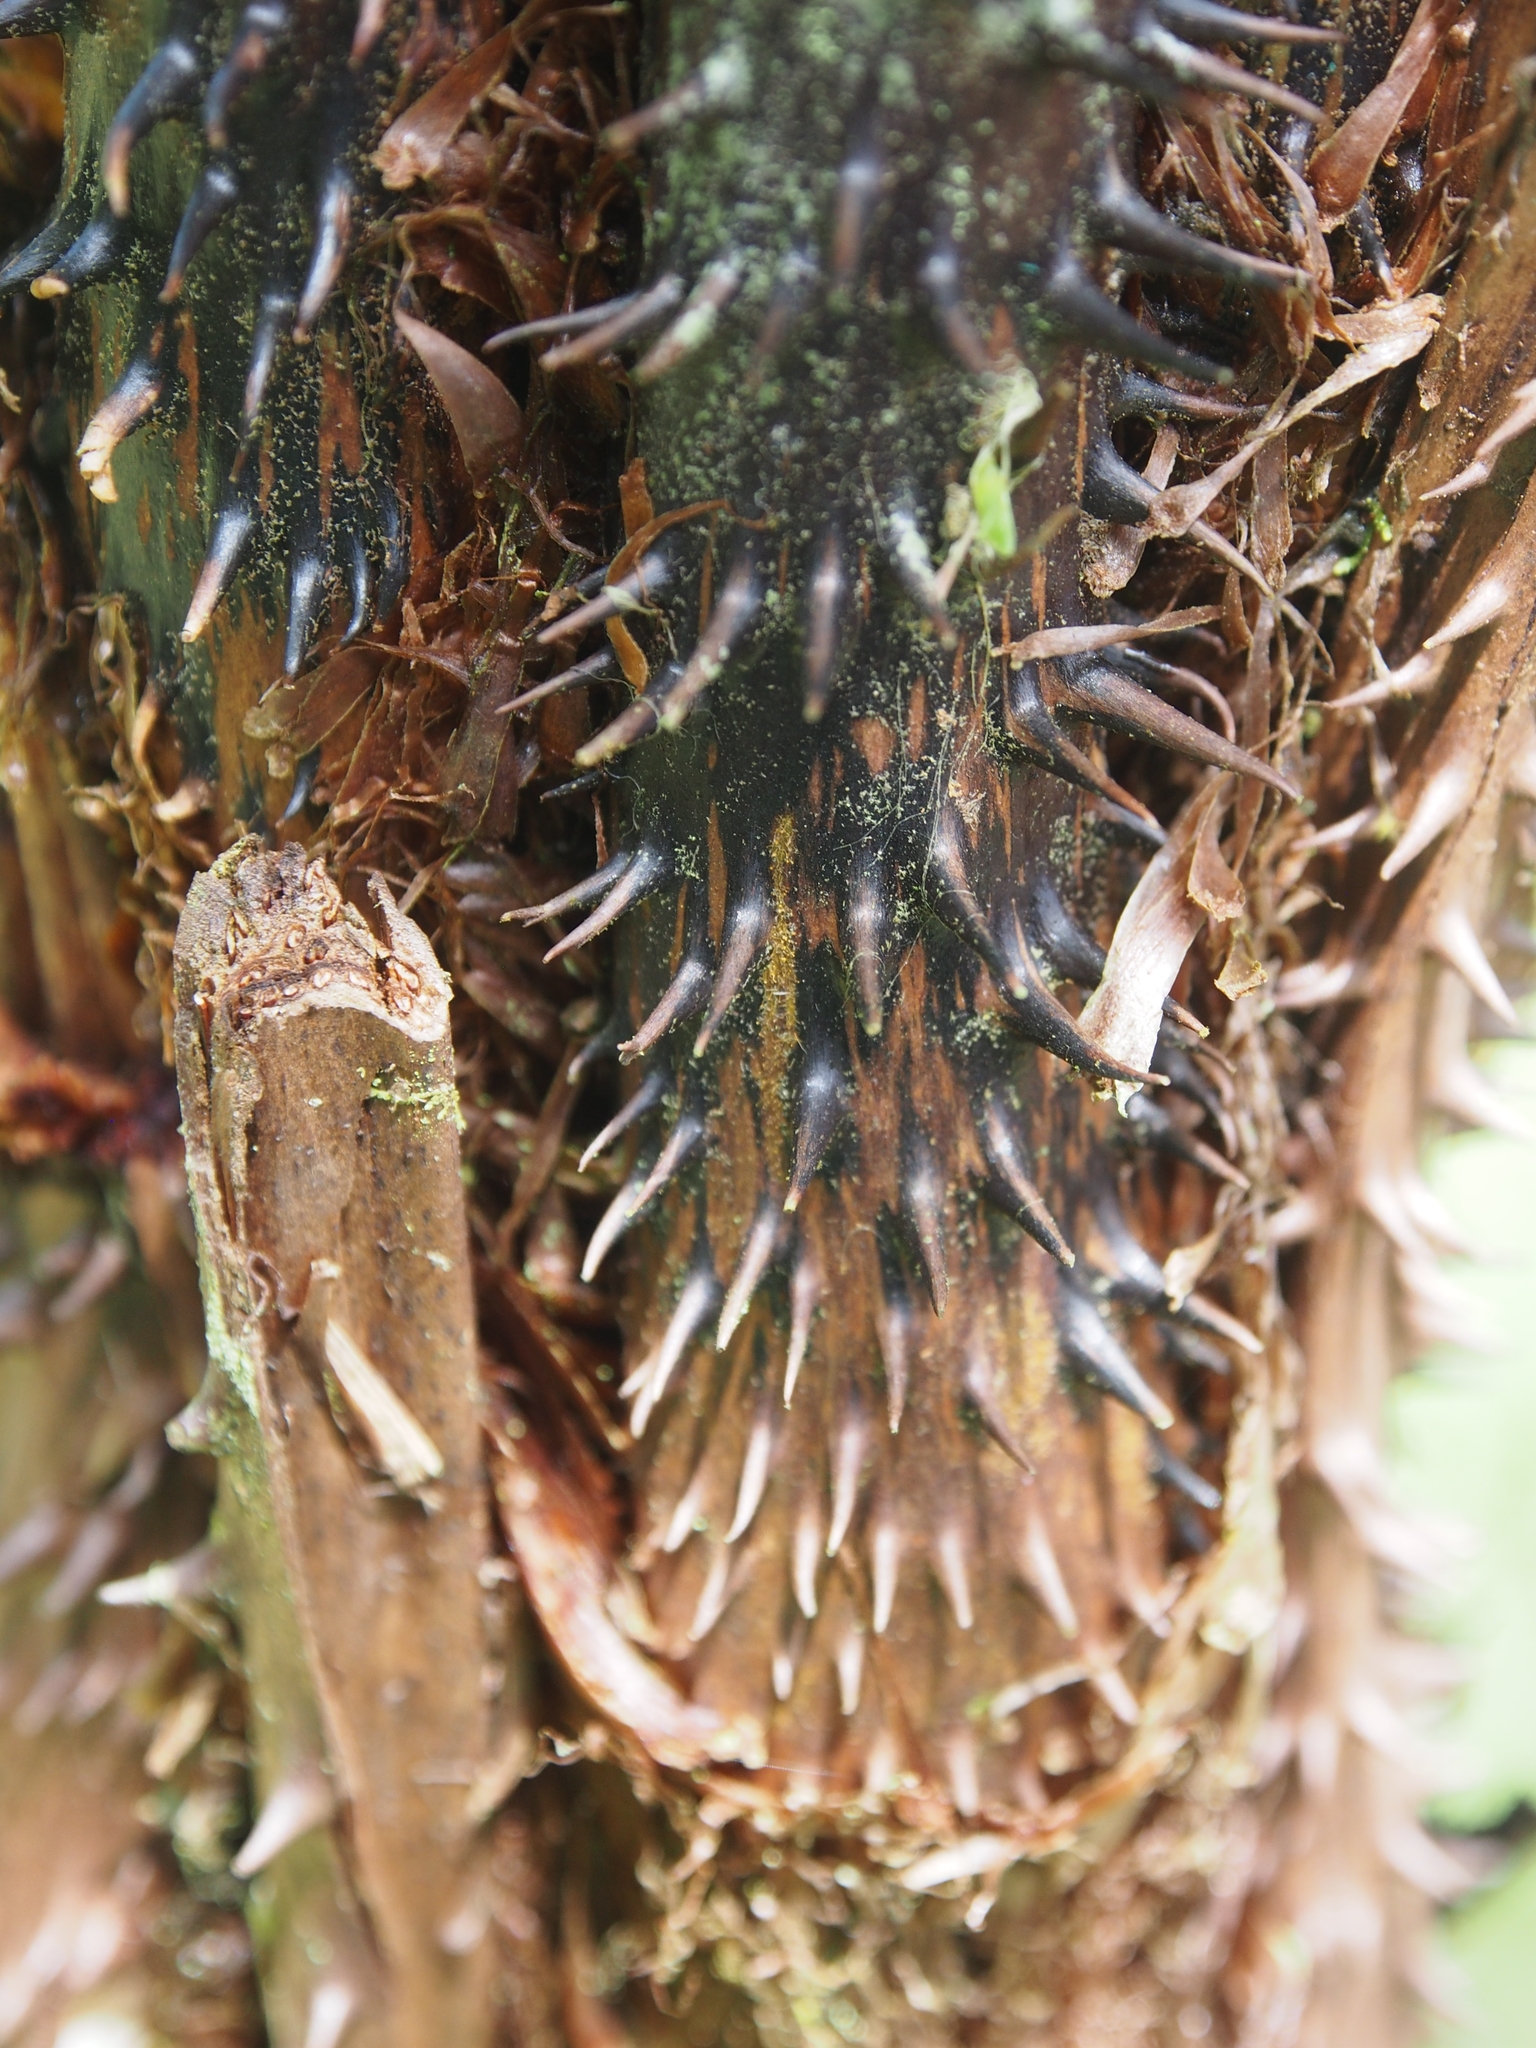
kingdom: Plantae
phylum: Tracheophyta
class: Polypodiopsida
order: Cyatheales
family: Cyatheaceae
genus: Cyathea
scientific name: Cyathea multiflora
